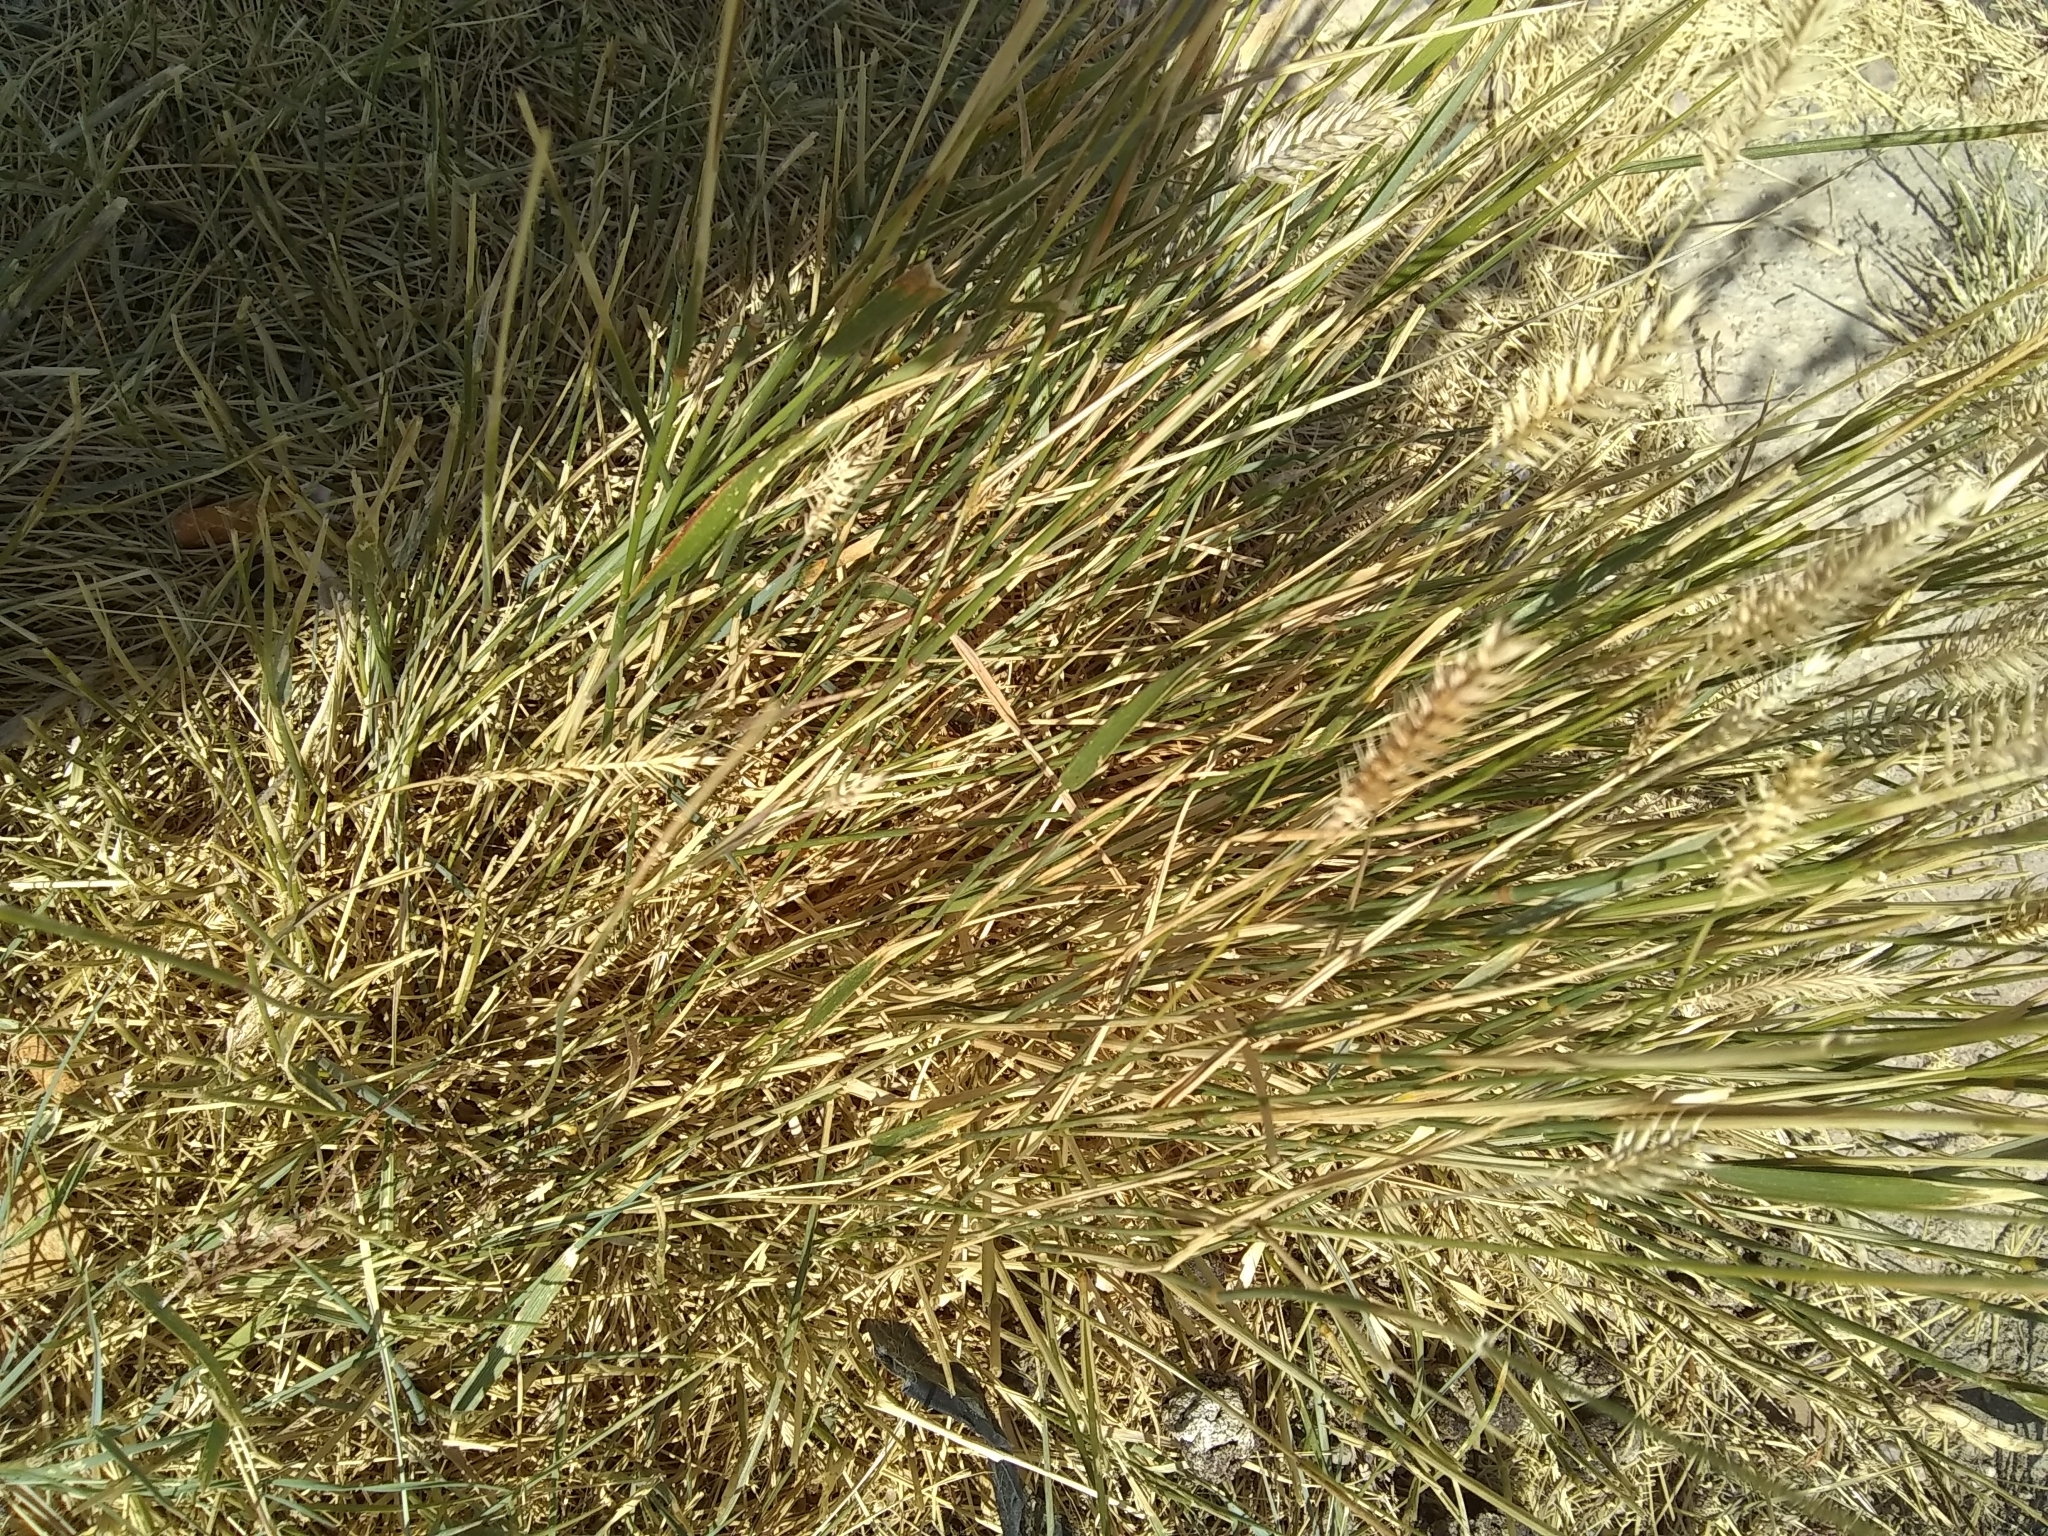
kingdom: Plantae
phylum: Tracheophyta
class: Liliopsida
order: Poales
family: Poaceae
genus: Agropyron
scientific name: Agropyron cristatum
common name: Crested wheatgrass
